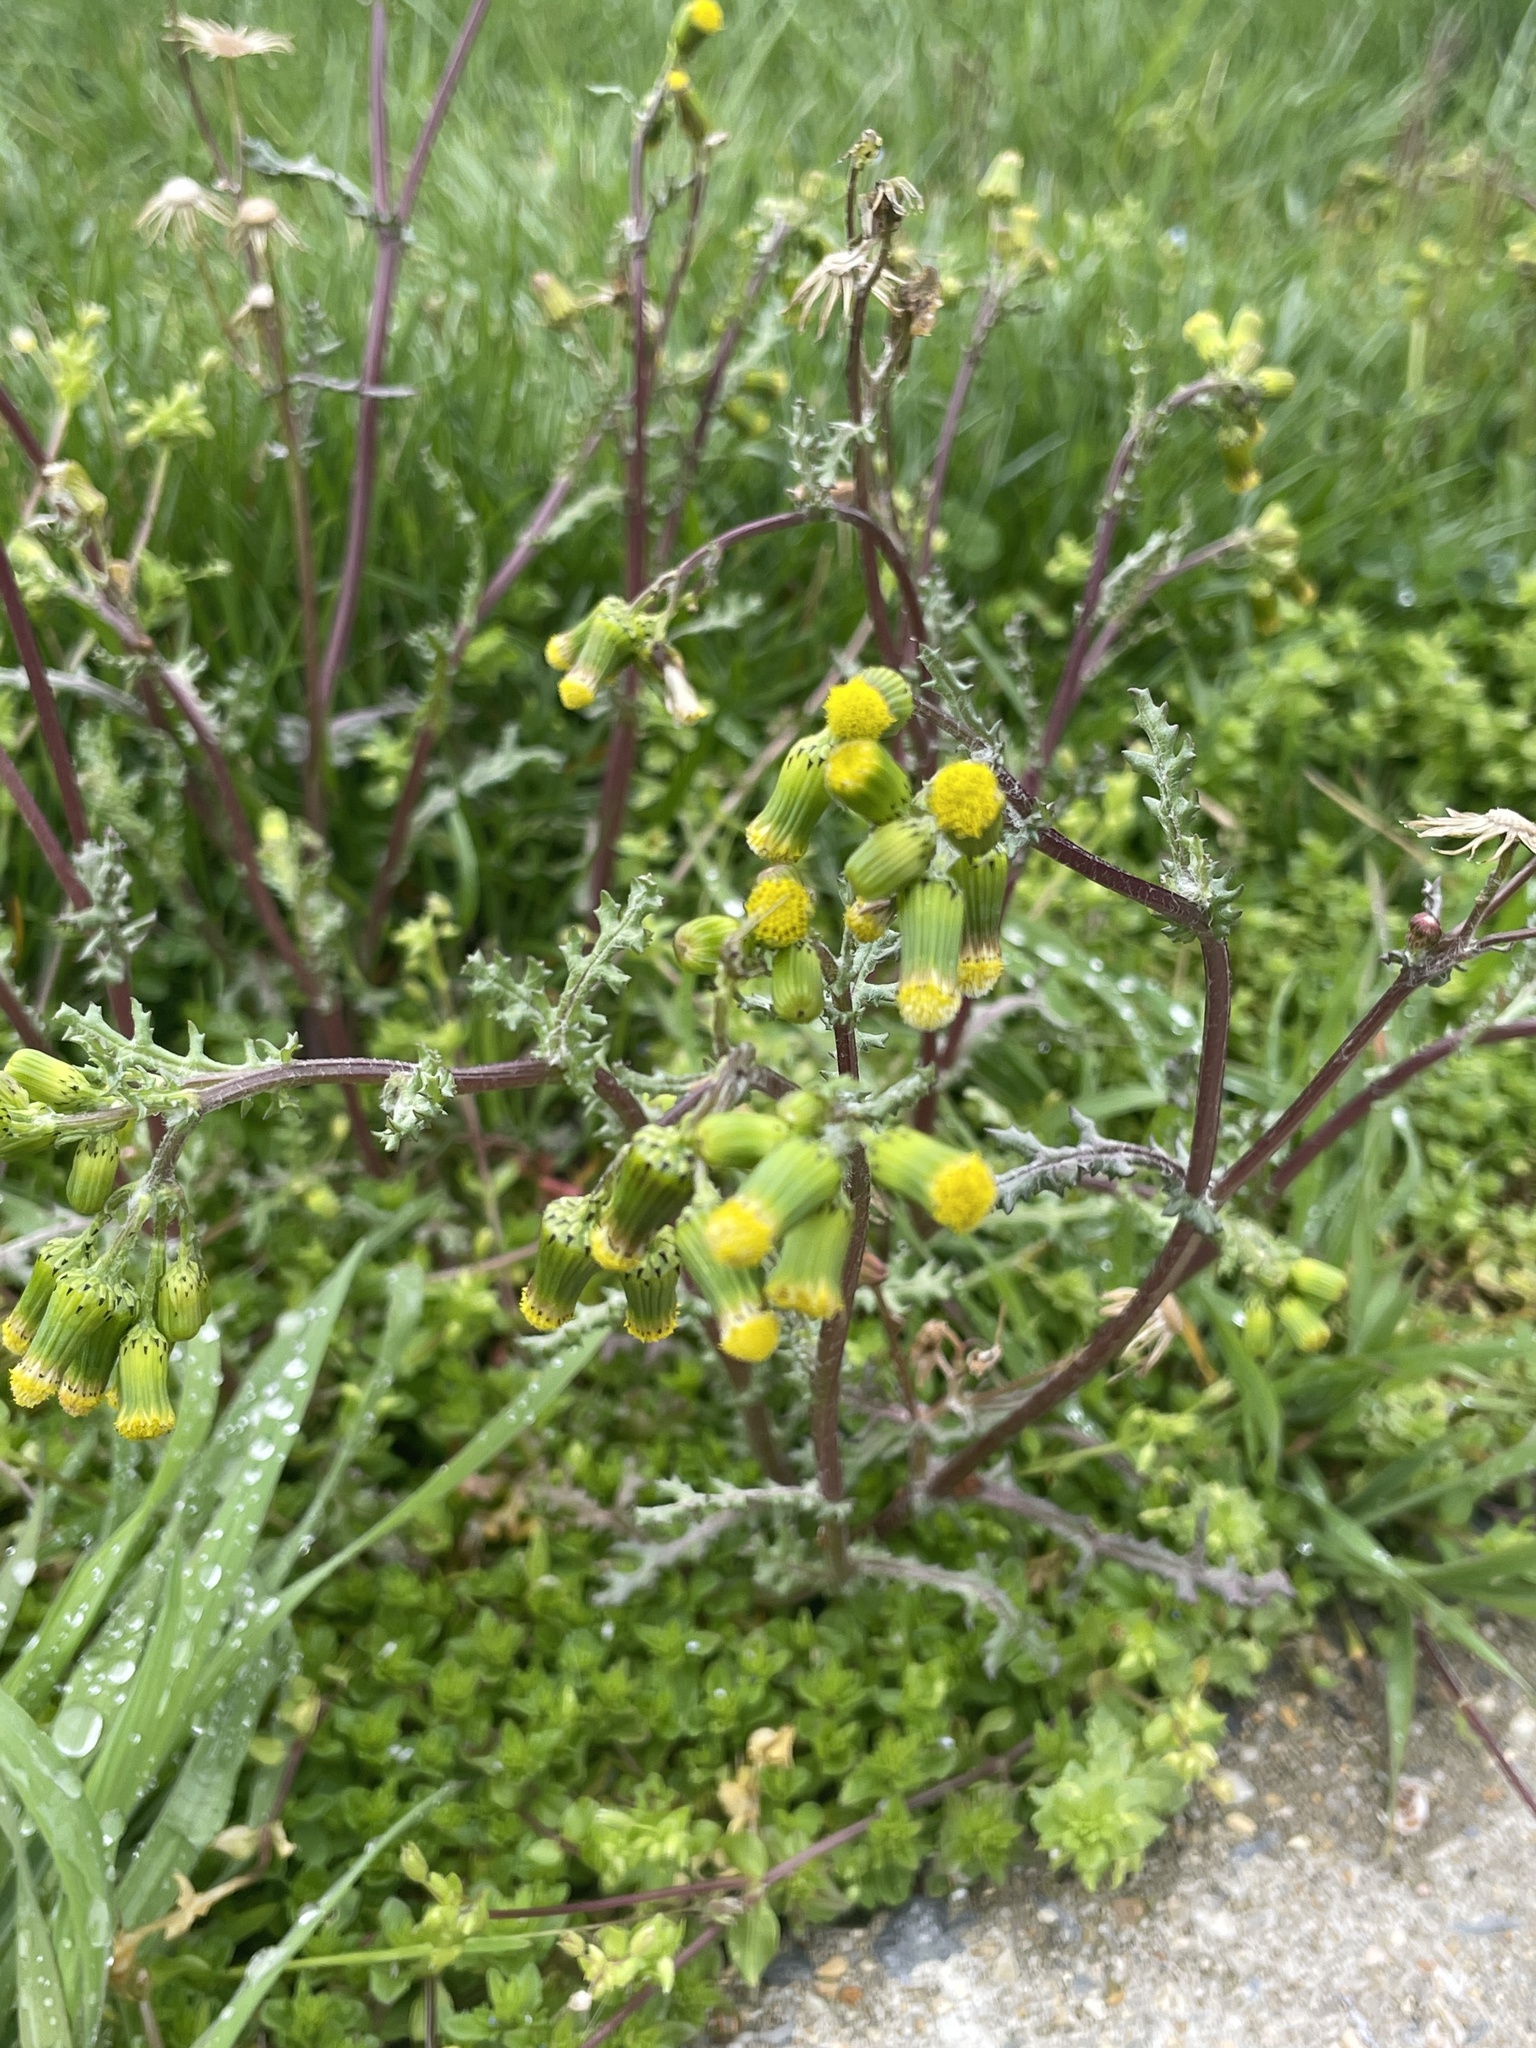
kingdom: Plantae
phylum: Tracheophyta
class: Magnoliopsida
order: Asterales
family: Asteraceae
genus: Senecio
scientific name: Senecio vulgaris
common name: Old-man-in-the-spring
